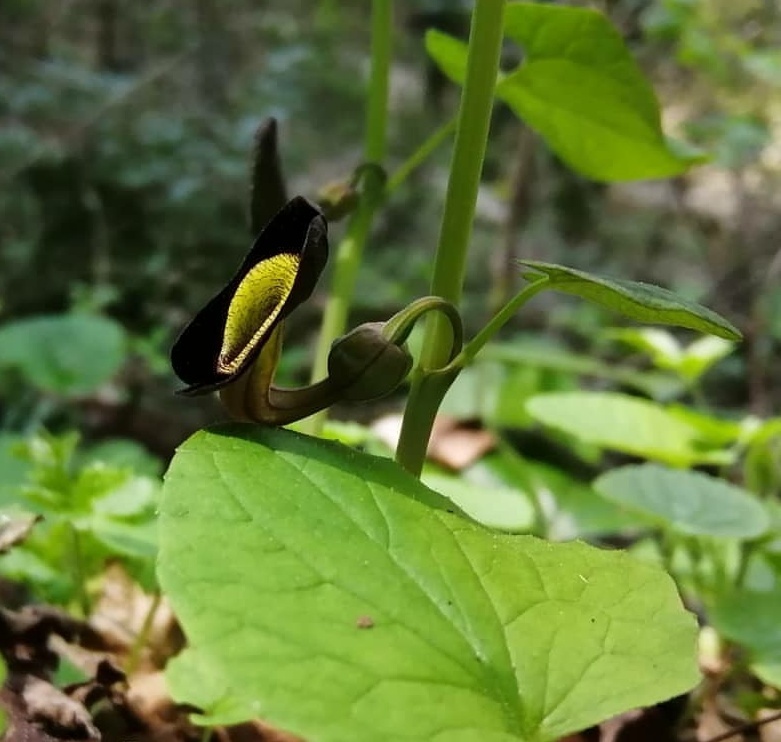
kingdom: Plantae
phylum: Tracheophyta
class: Magnoliopsida
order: Piperales
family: Aristolochiaceae
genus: Aristolochia
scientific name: Aristolochia steupii
